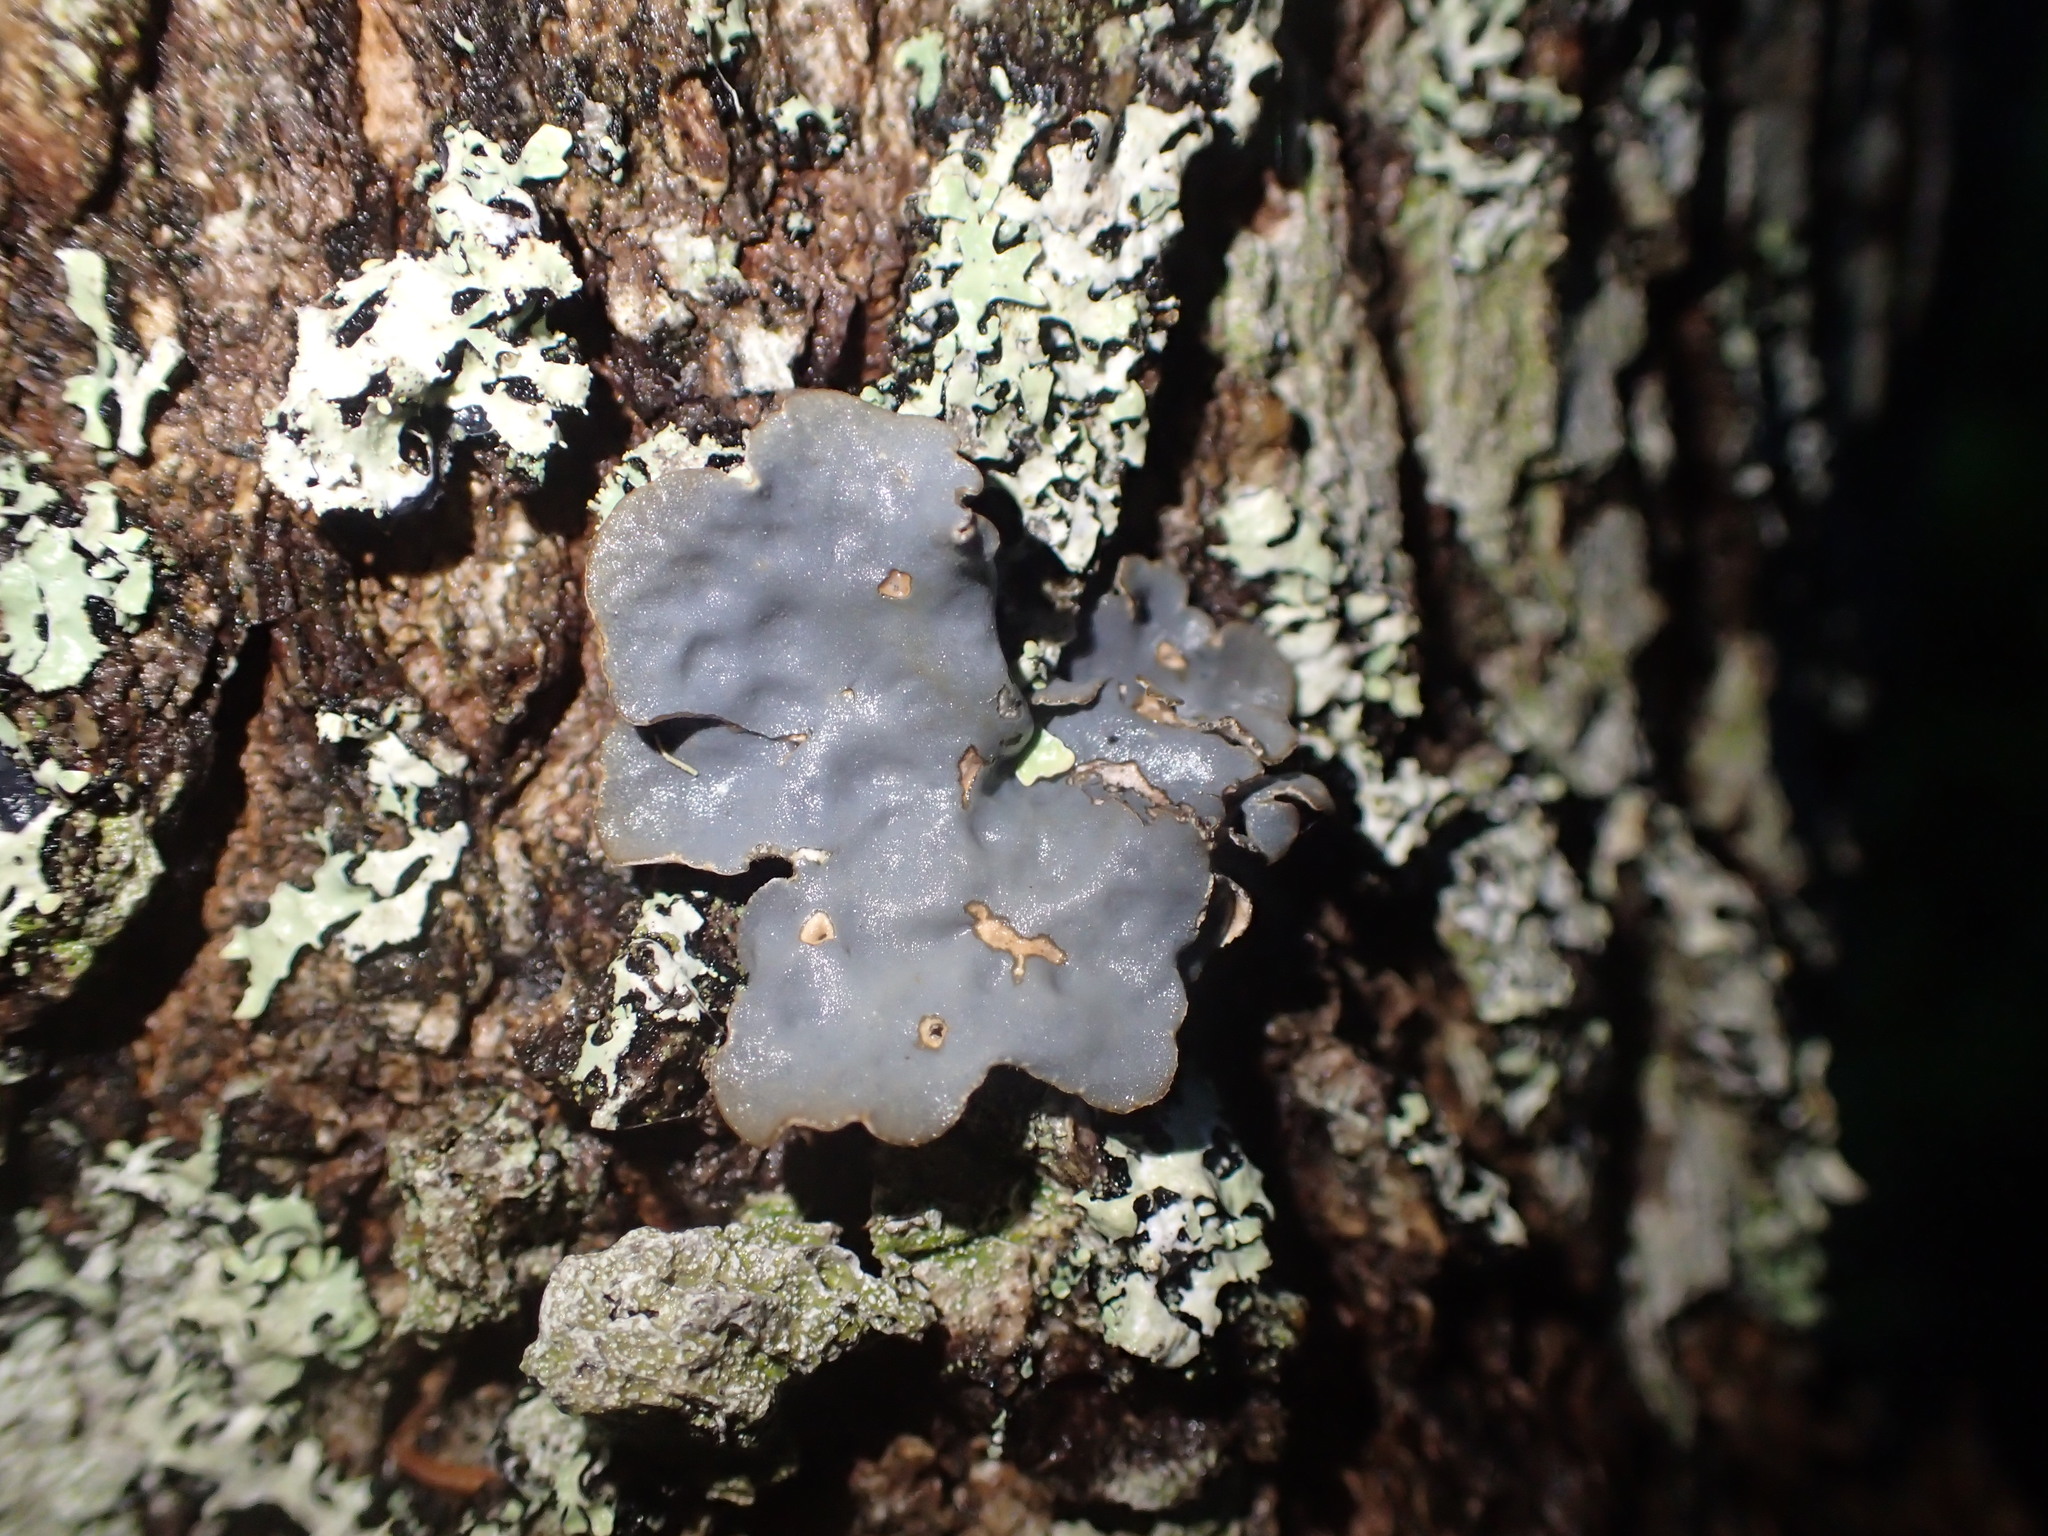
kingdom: Fungi
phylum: Ascomycota
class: Lecanoromycetes
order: Peltigerales
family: Lobariaceae
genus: Lobarina
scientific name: Lobarina scrobiculata
